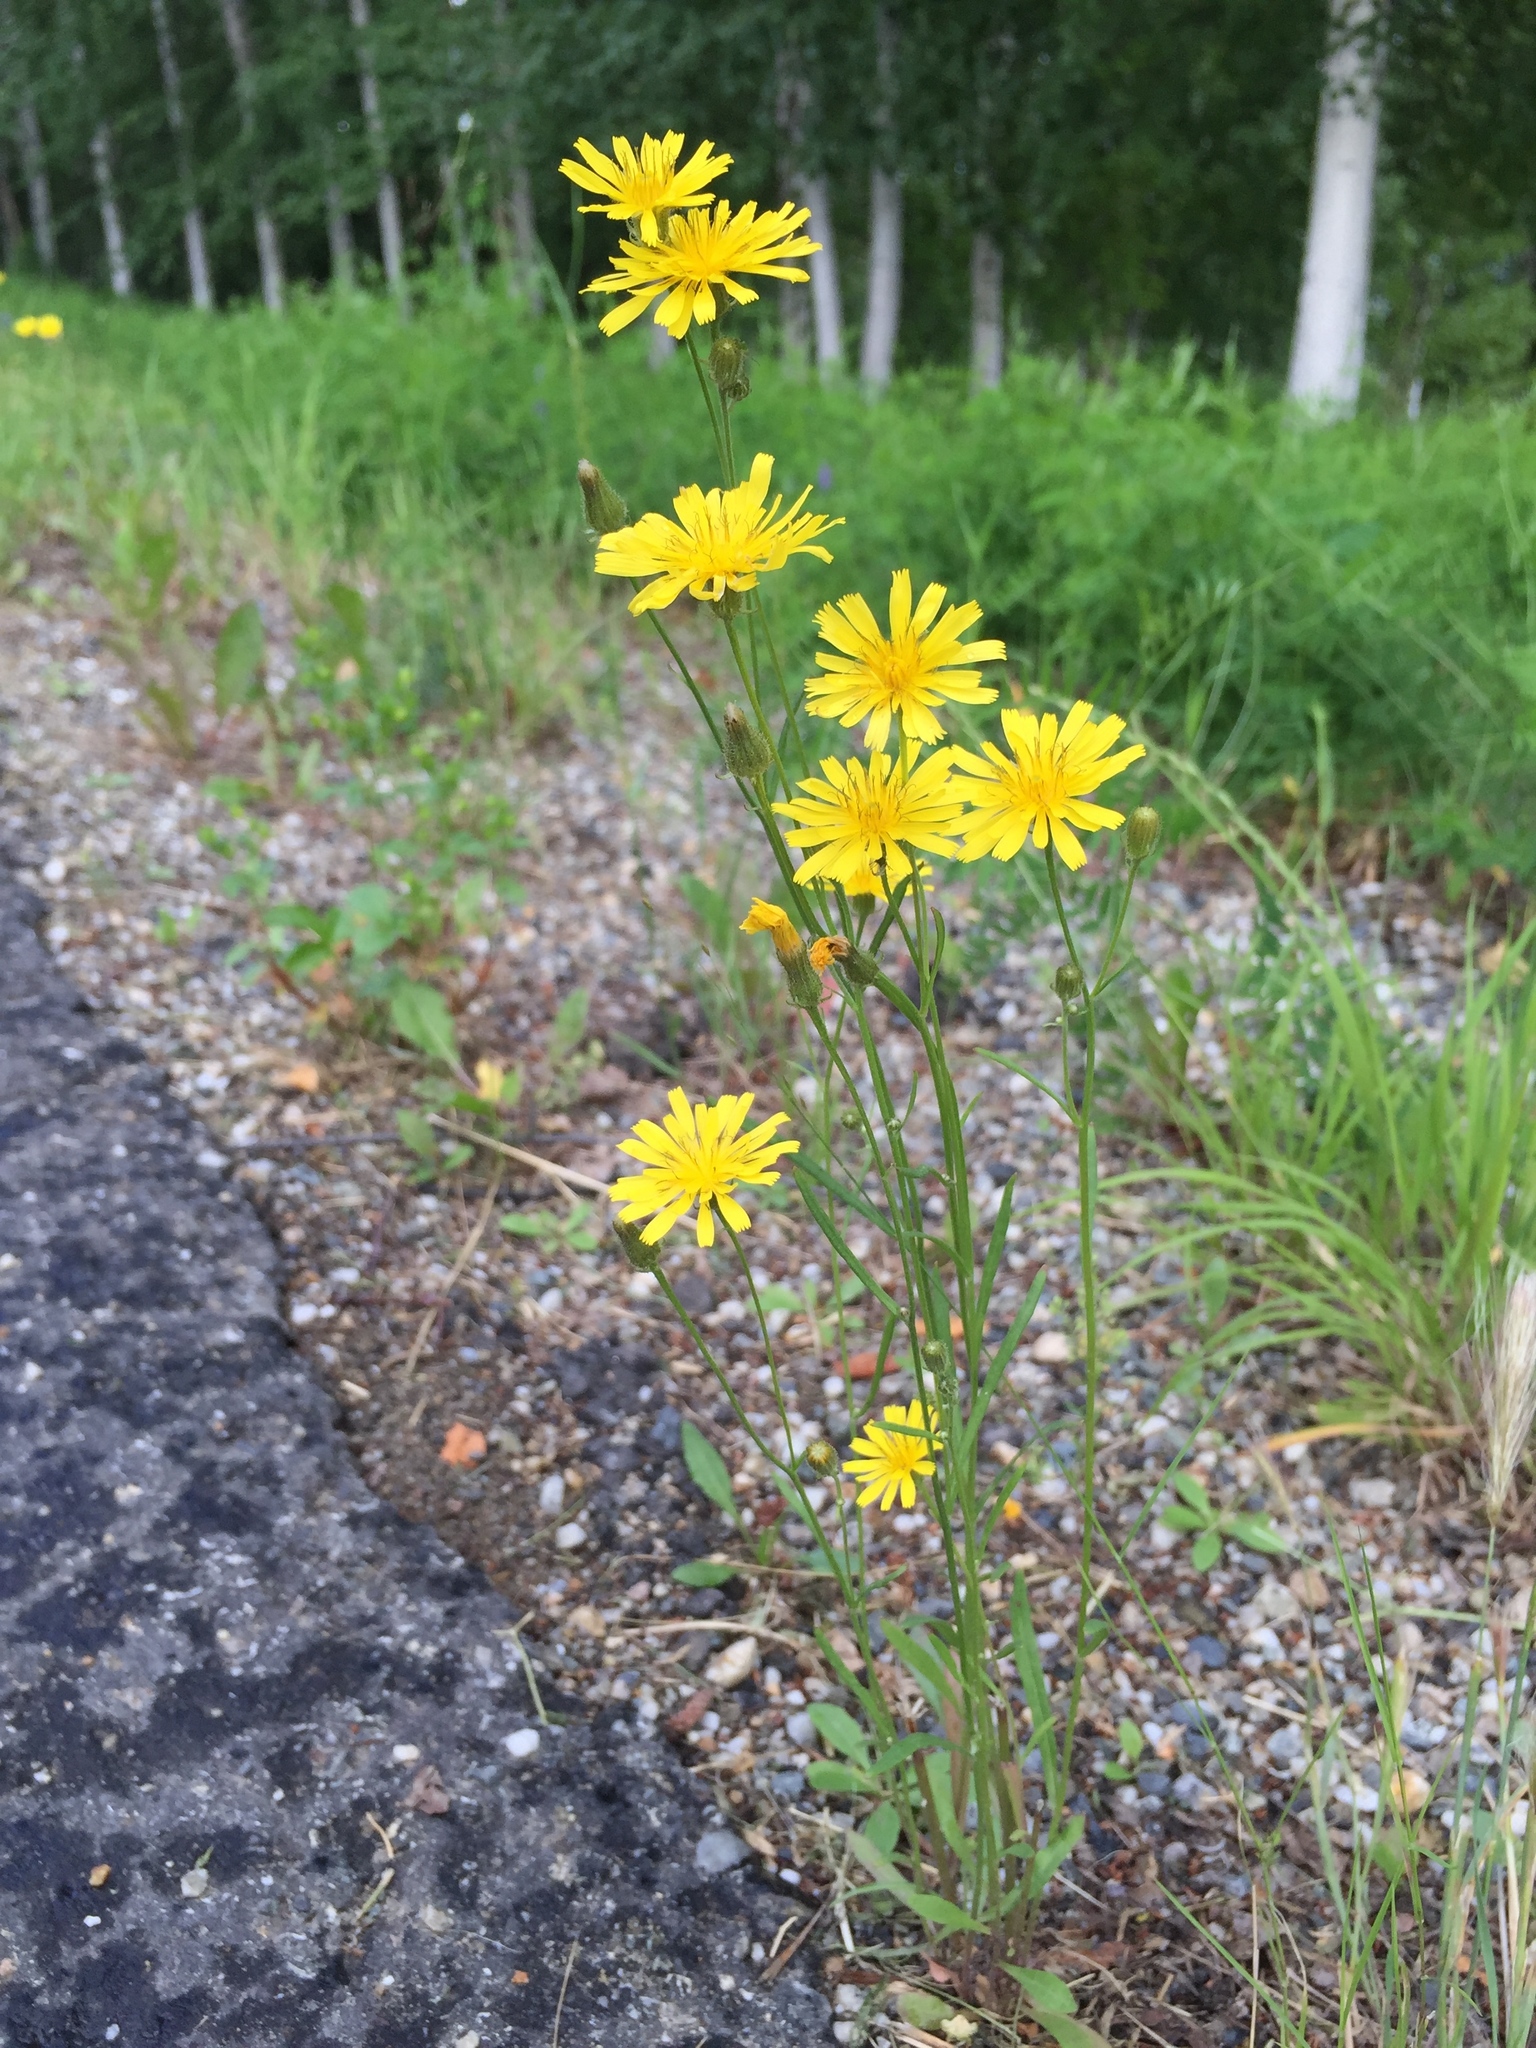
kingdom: Plantae
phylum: Tracheophyta
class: Magnoliopsida
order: Asterales
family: Asteraceae
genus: Crepis
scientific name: Crepis tectorum
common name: Narrow-leaved hawk's-beard
